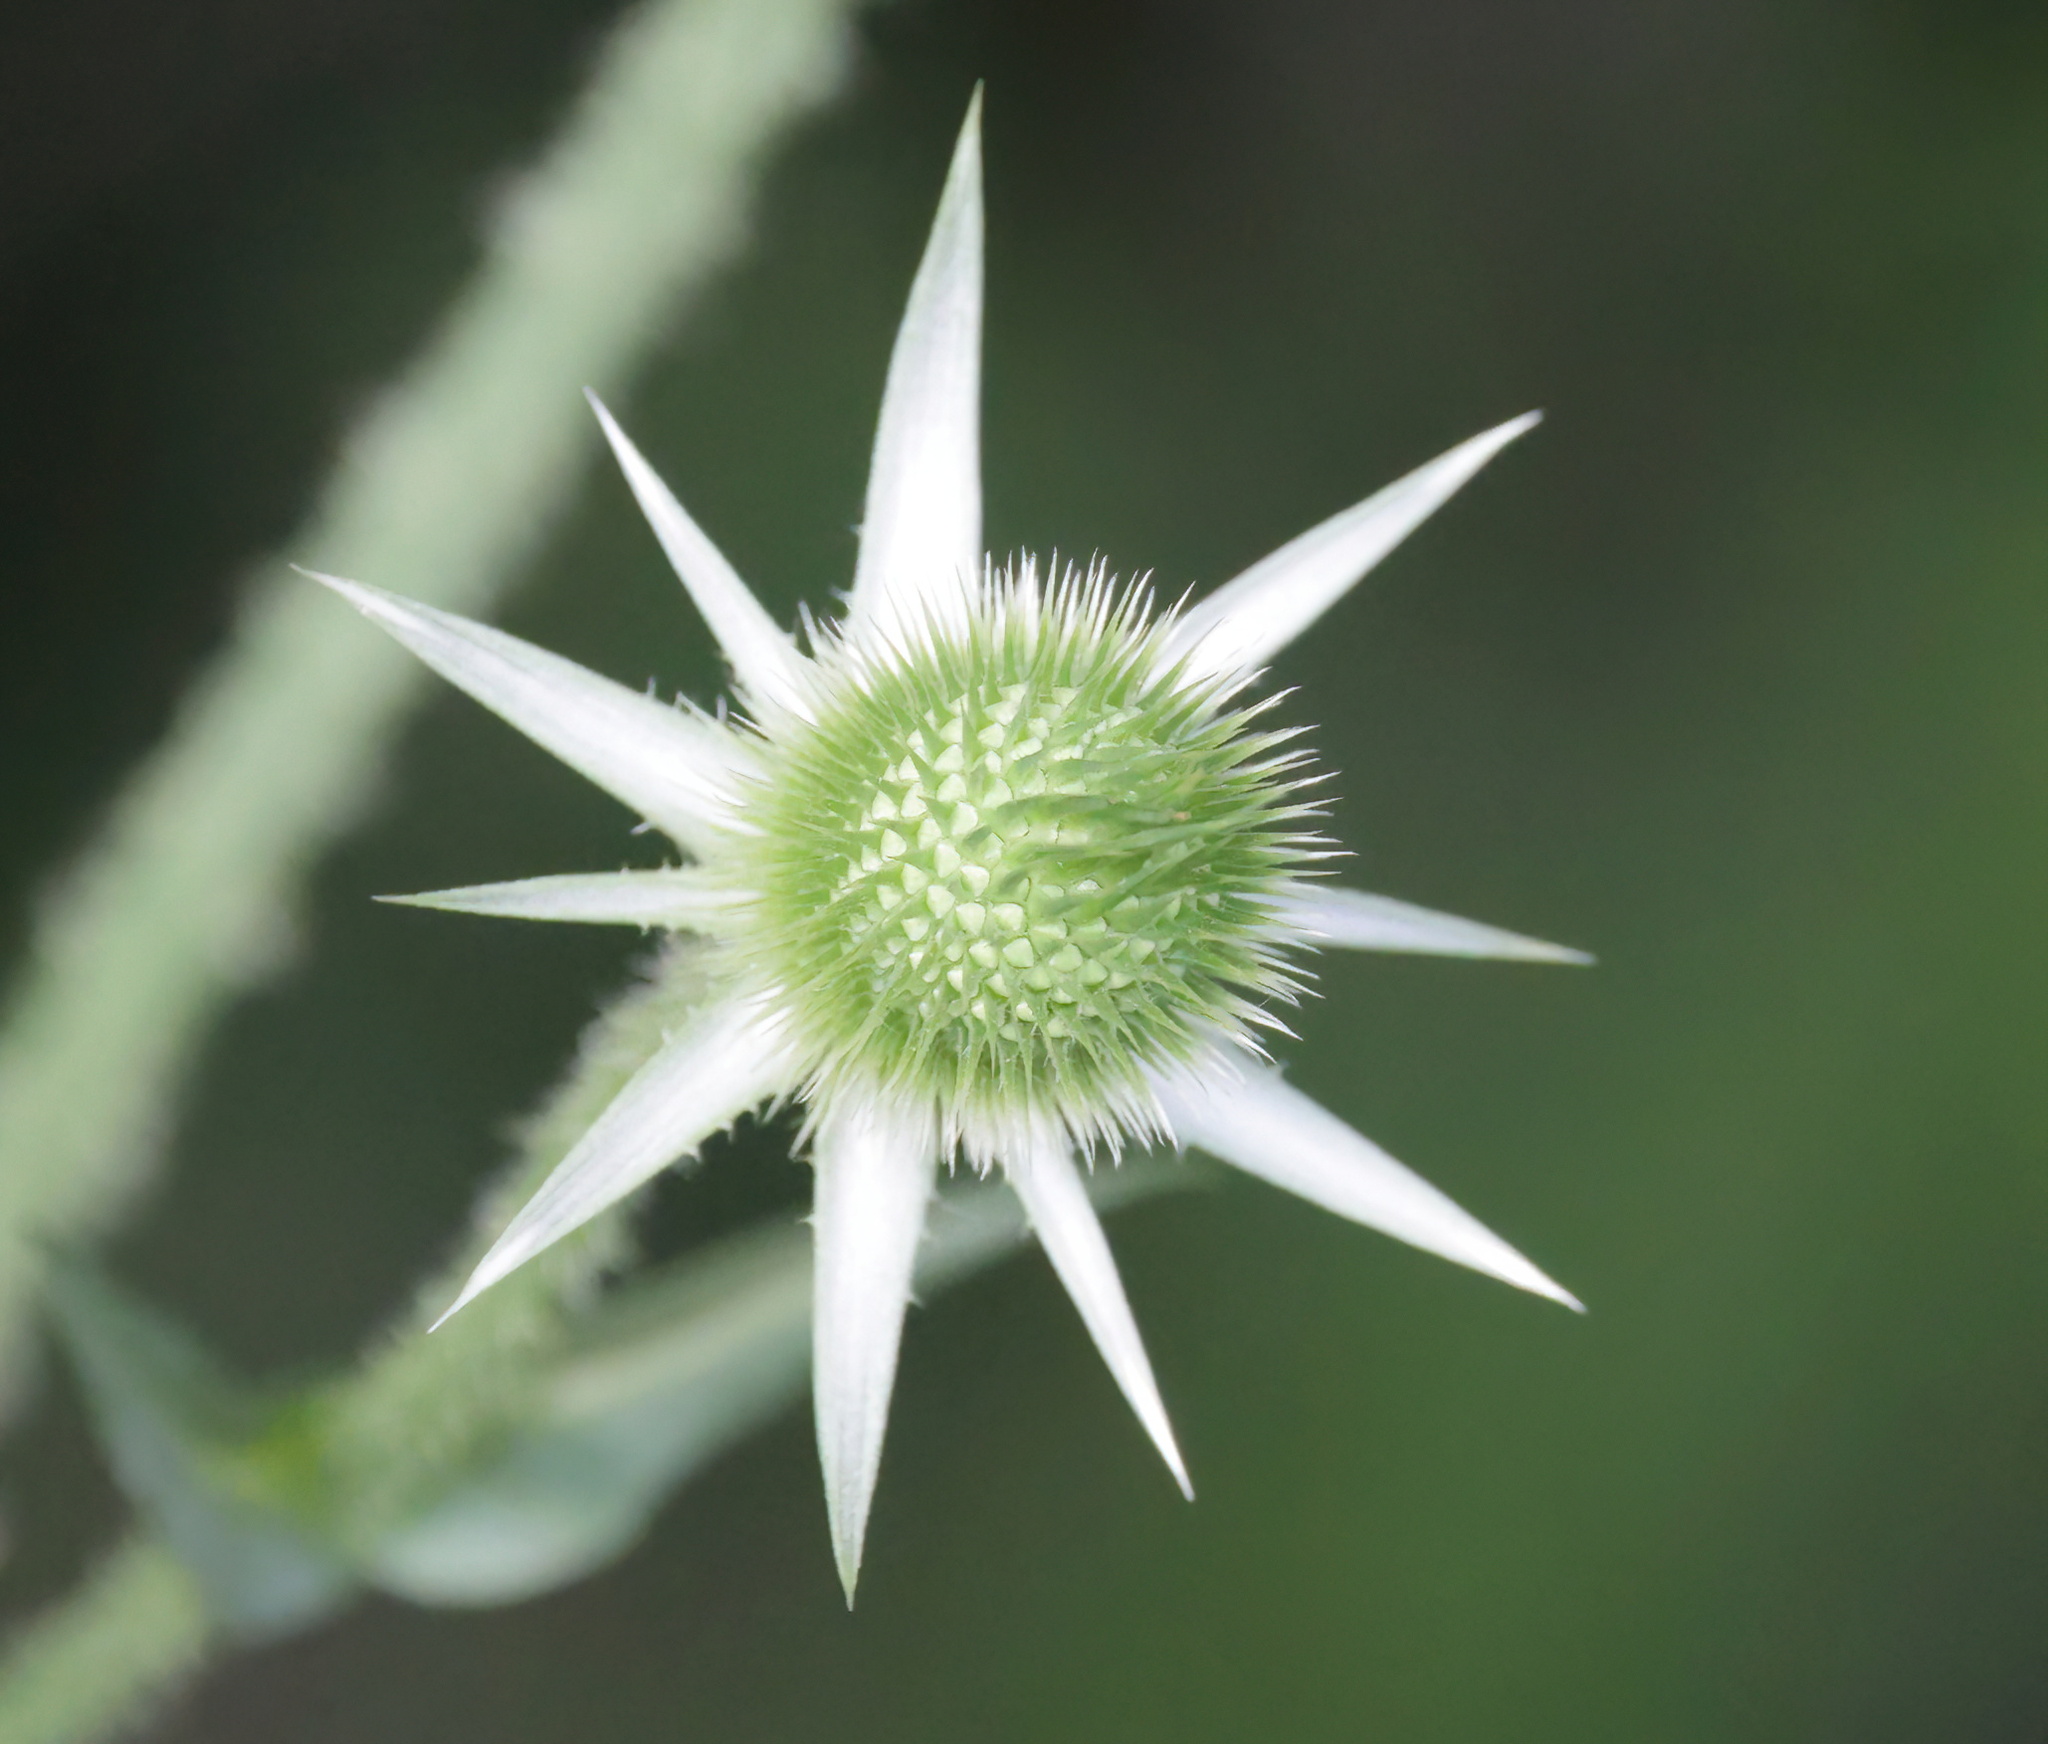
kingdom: Plantae
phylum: Tracheophyta
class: Magnoliopsida
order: Dipsacales
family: Caprifoliaceae
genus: Dipsacus
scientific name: Dipsacus laciniatus
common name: Cut-leaved teasel
